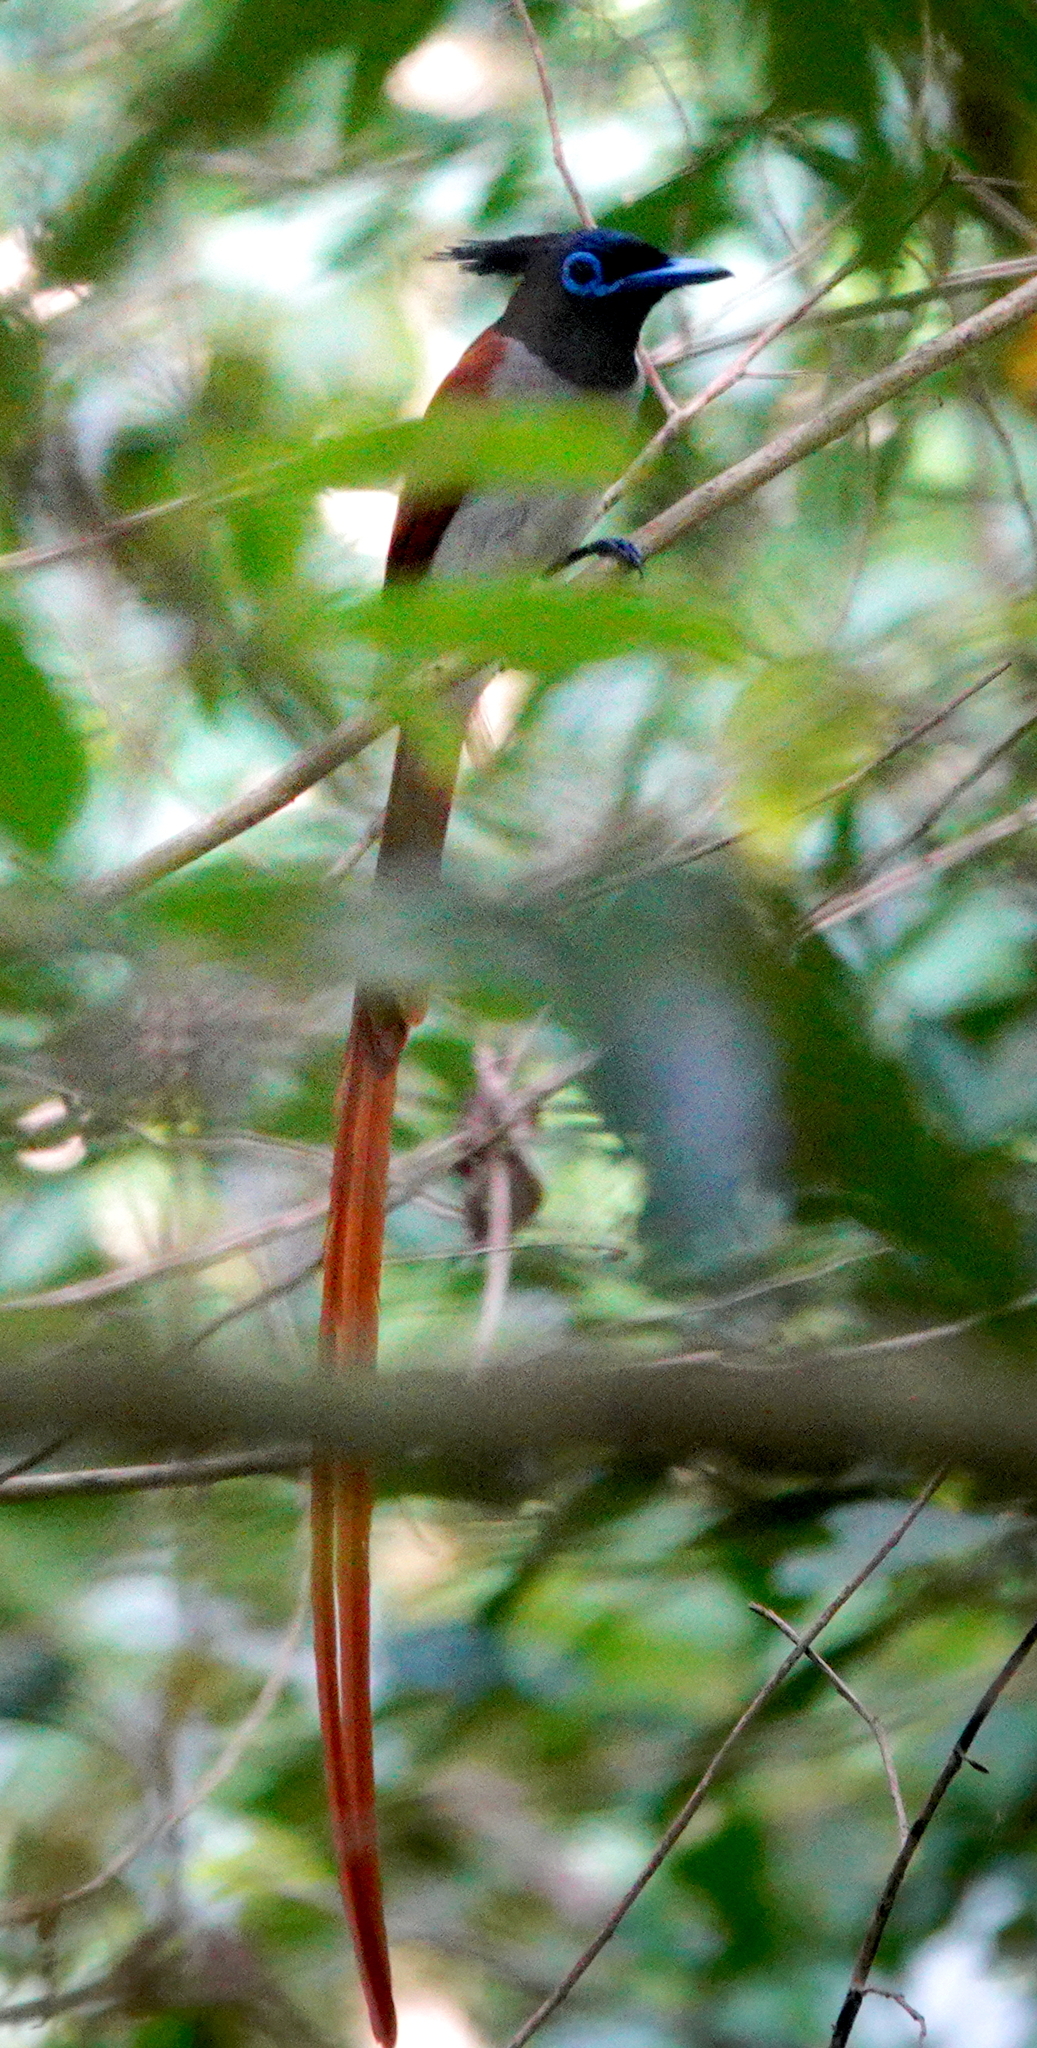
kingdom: Animalia
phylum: Chordata
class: Aves
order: Passeriformes
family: Monarchidae
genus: Terpsiphone
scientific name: Terpsiphone paradisi
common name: Indian paradise flycatcher
